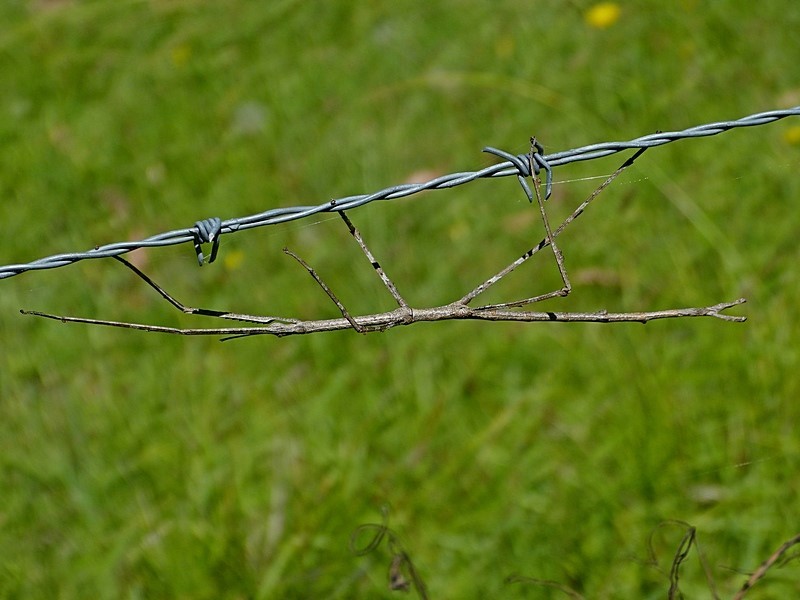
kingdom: Animalia
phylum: Arthropoda
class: Insecta
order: Phasmida
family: Phasmatidae
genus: Ctenomorpha
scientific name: Ctenomorpha marginipennis
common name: Margined-winged stick-insect
